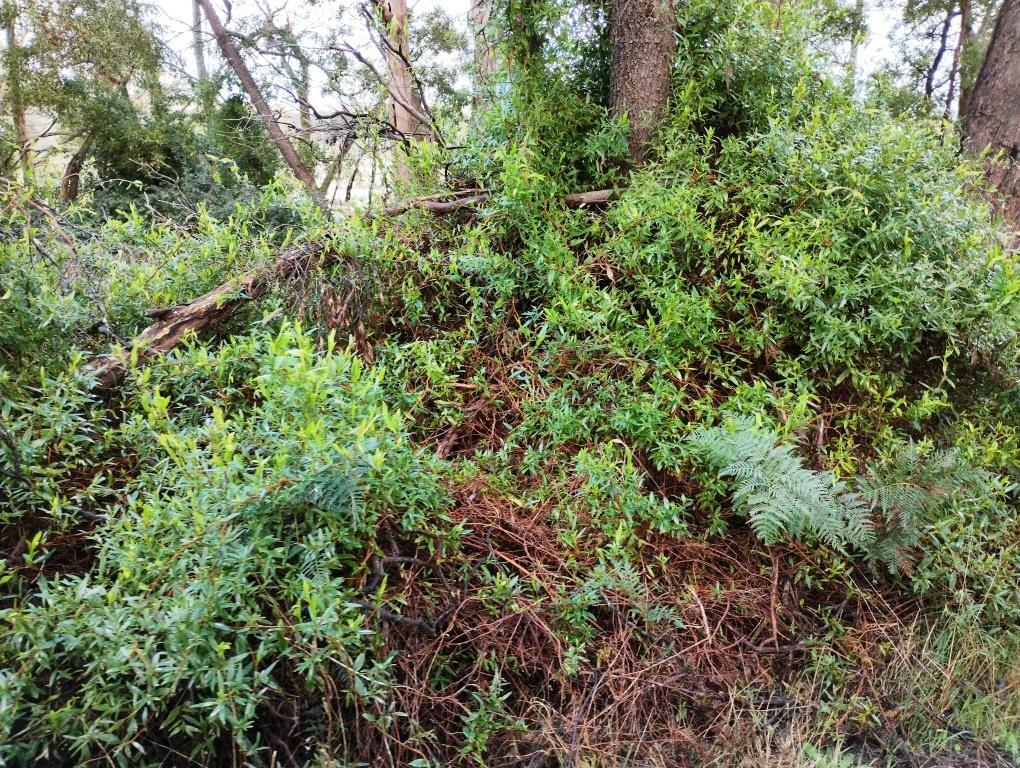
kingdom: Plantae
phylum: Tracheophyta
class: Magnoliopsida
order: Apiales
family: Pittosporaceae
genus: Billardiera
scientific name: Billardiera fusiformis
